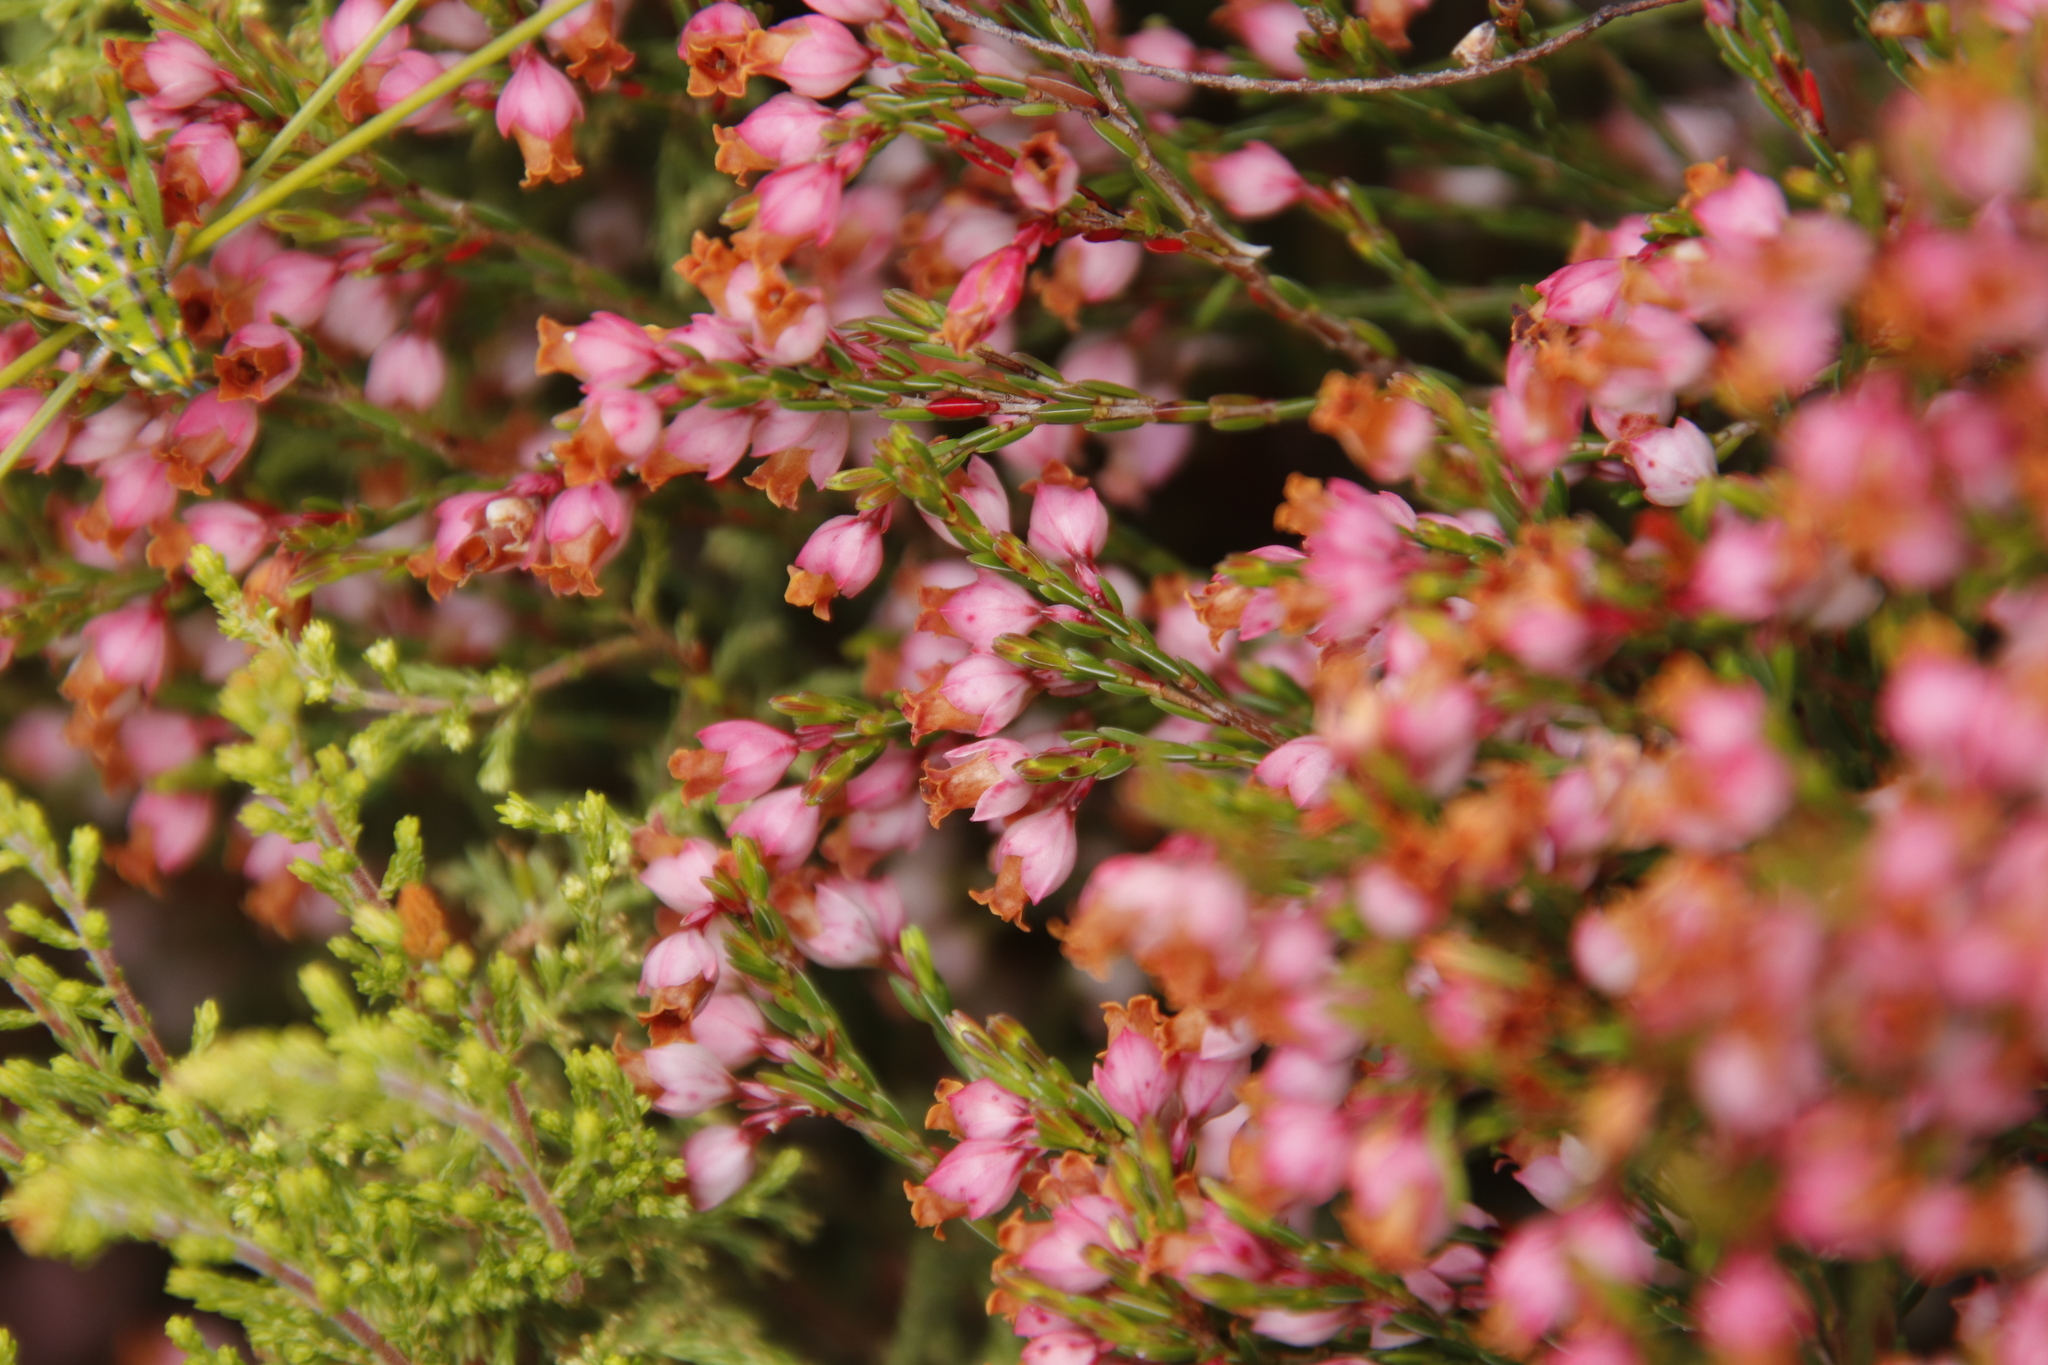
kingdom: Plantae
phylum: Tracheophyta
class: Magnoliopsida
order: Ericales
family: Ericaceae
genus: Erica
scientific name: Erica tenuifolia
